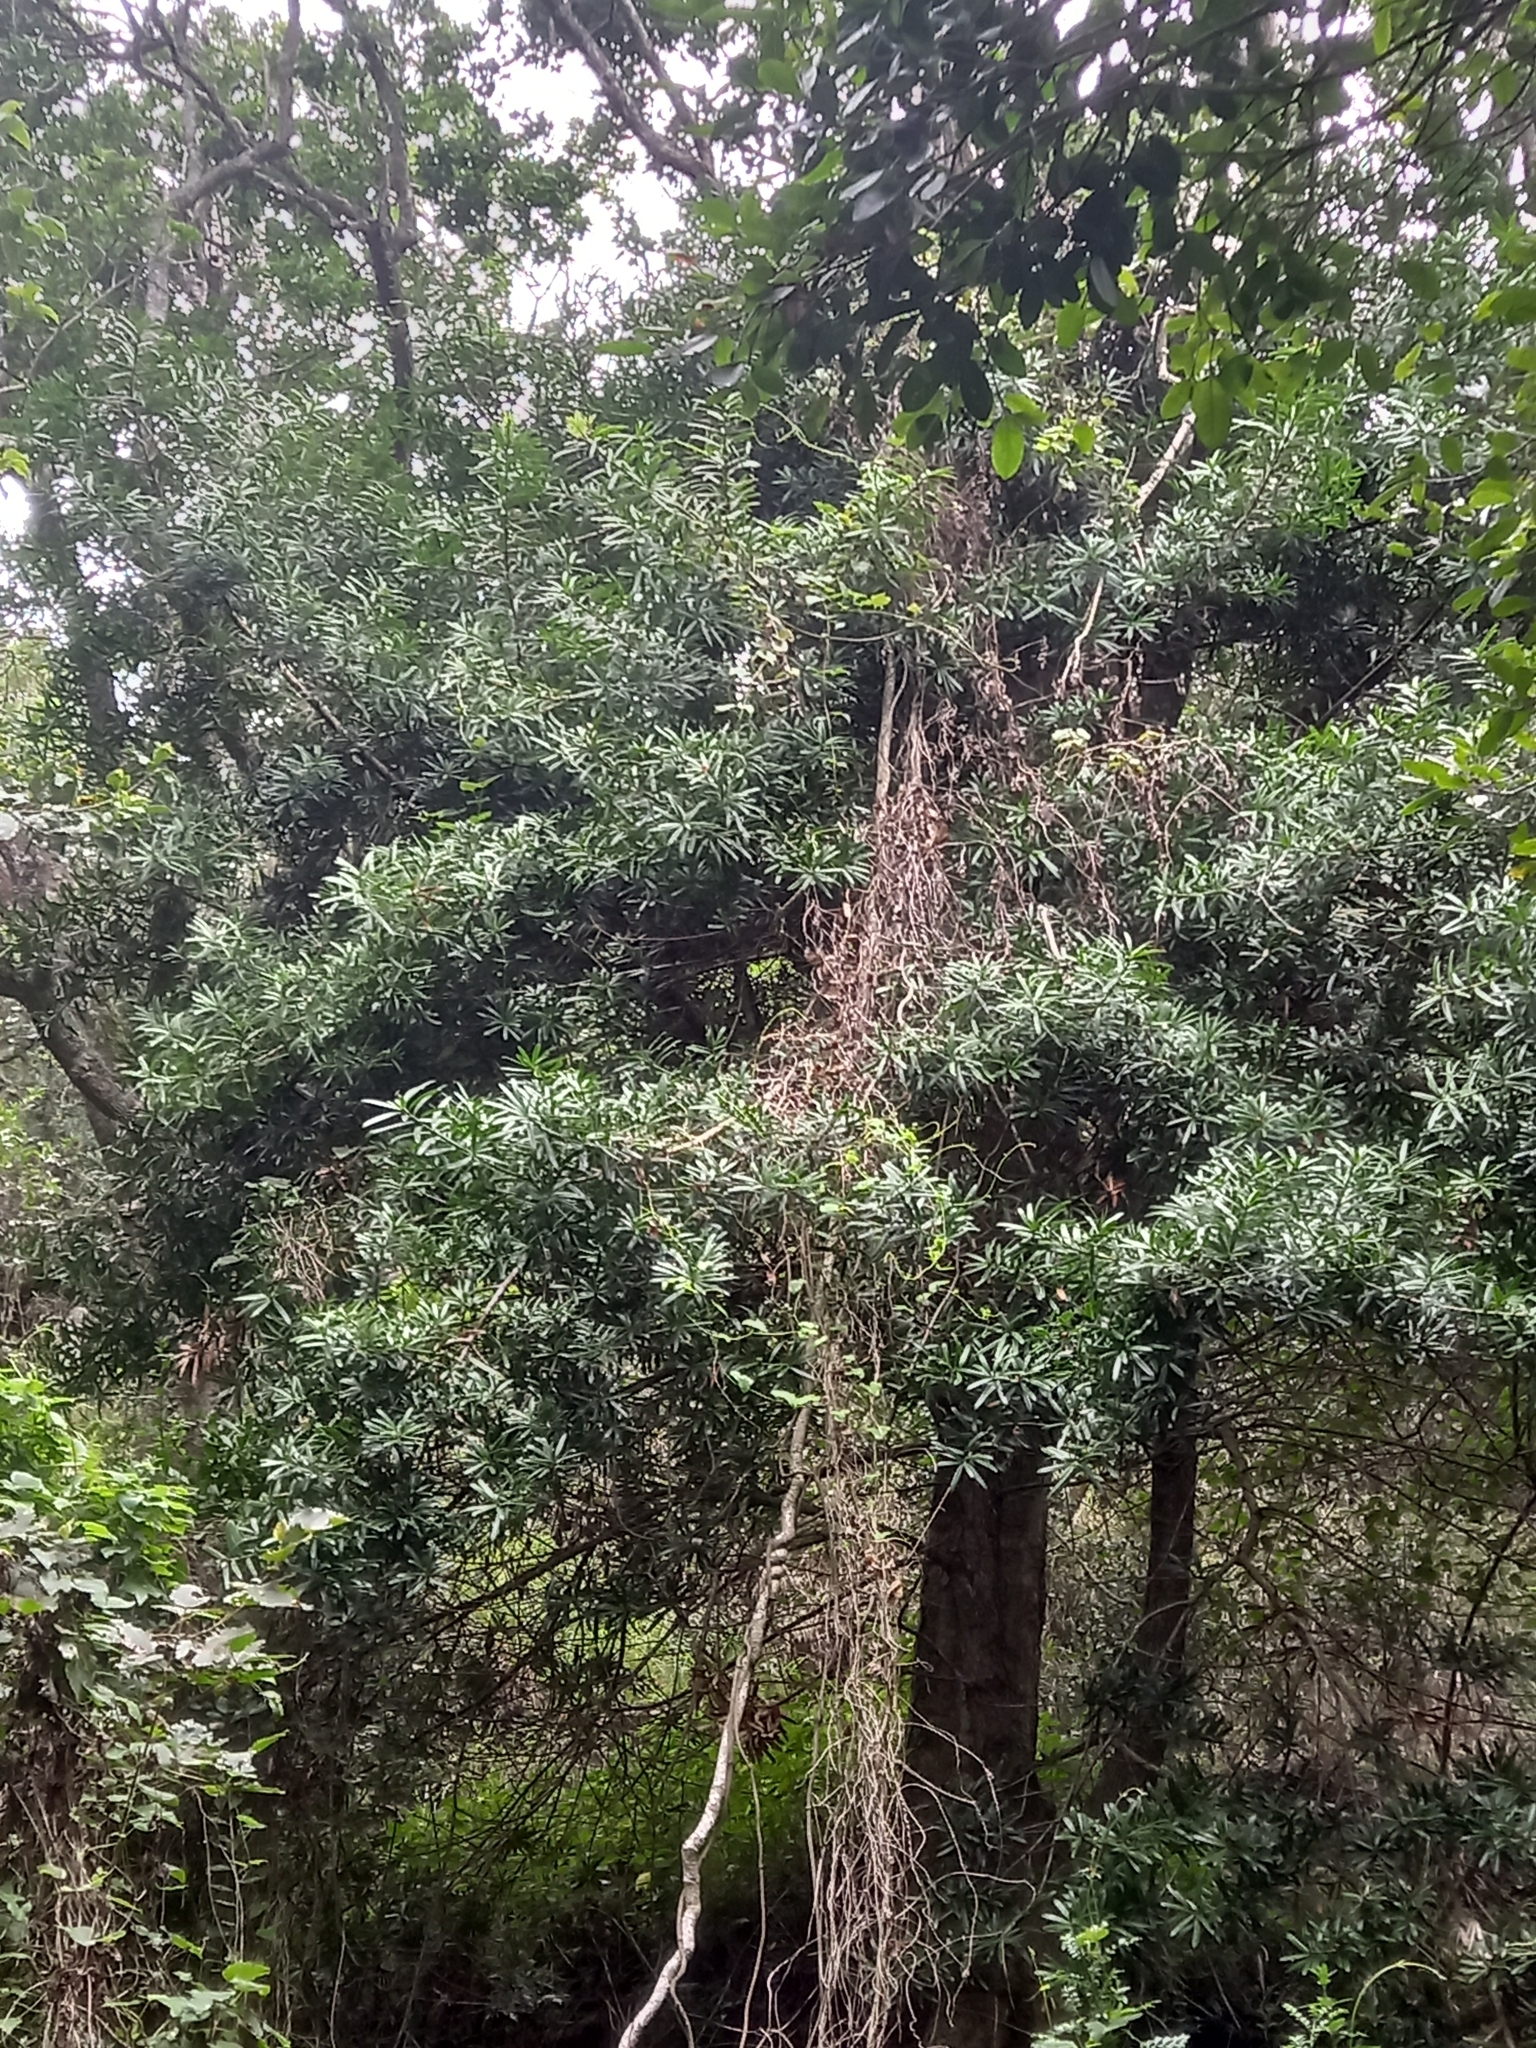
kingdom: Plantae
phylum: Tracheophyta
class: Pinopsida
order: Pinales
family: Podocarpaceae
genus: Podocarpus
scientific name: Podocarpus latifolius
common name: True yellowwood
